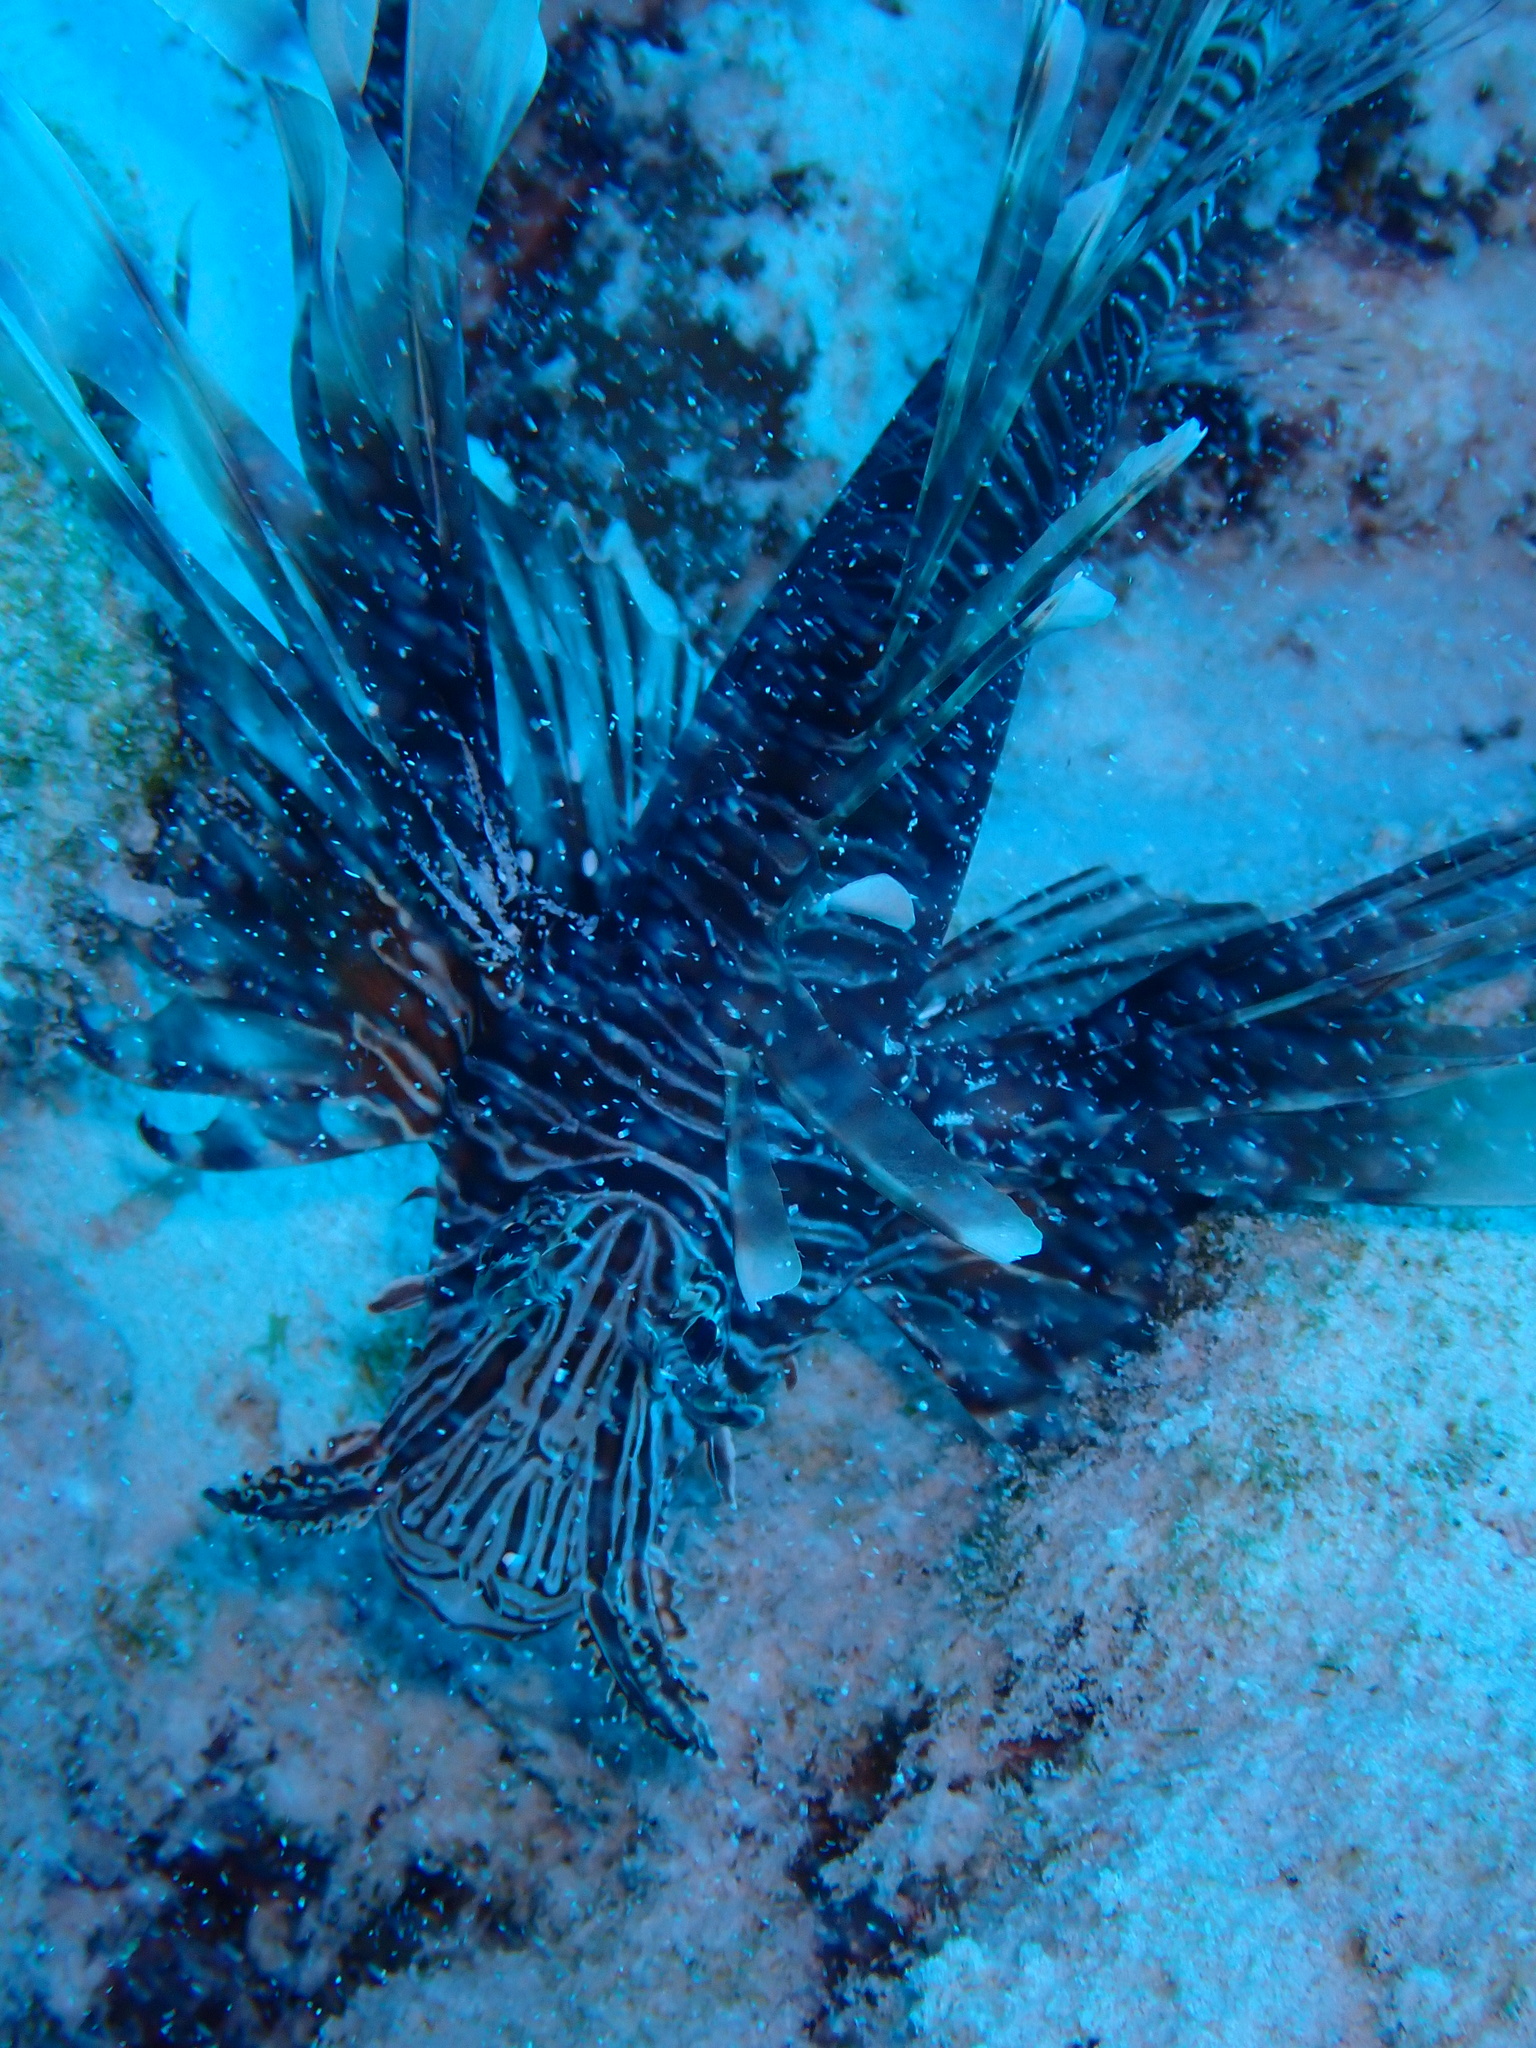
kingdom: Animalia
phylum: Chordata
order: Scorpaeniformes
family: Scorpaenidae
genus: Pterois
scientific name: Pterois volitans
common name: Lionfish
